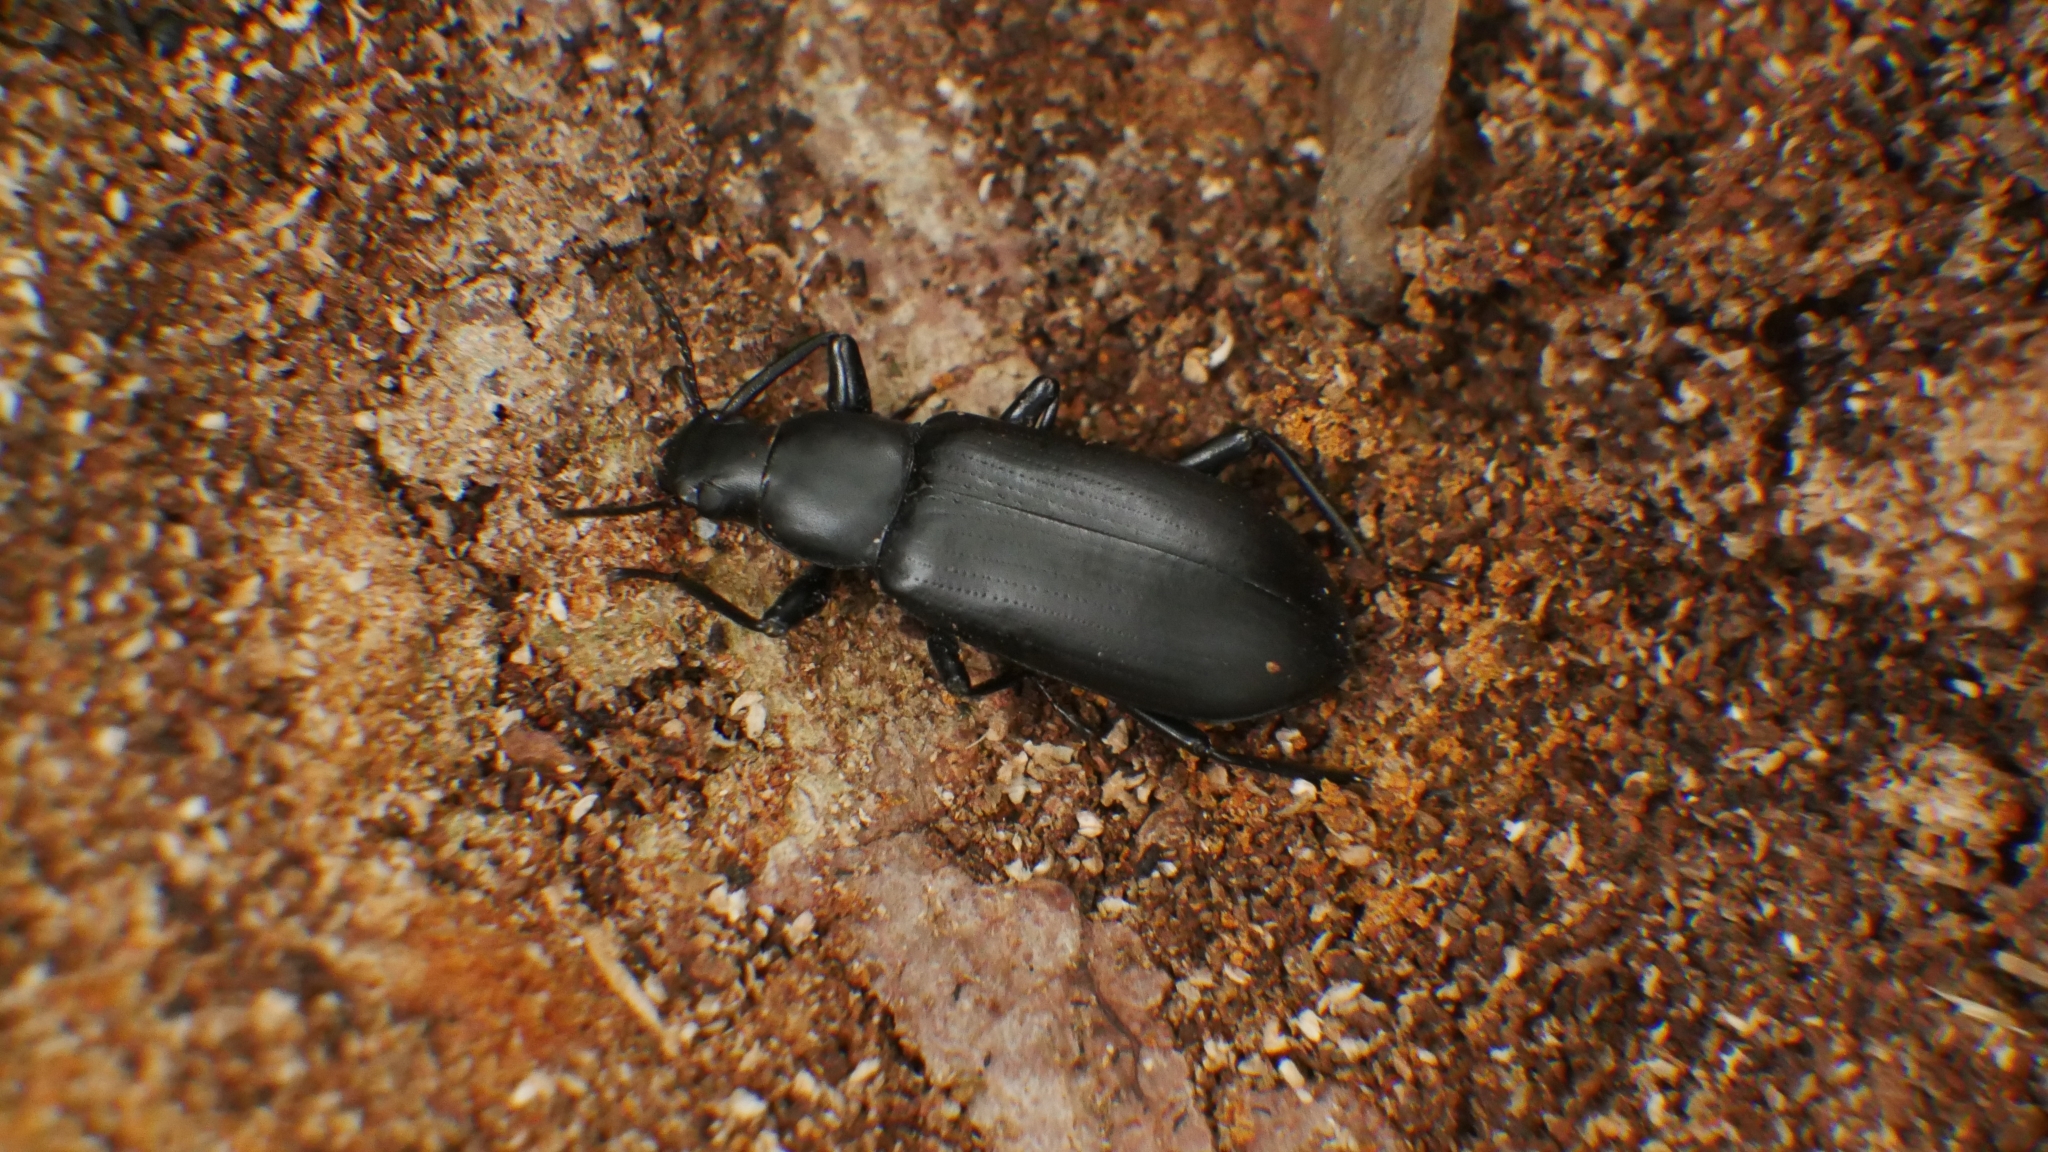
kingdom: Animalia
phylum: Arthropoda
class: Insecta
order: Coleoptera
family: Tenebrionidae
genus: Alobates
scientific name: Alobates
